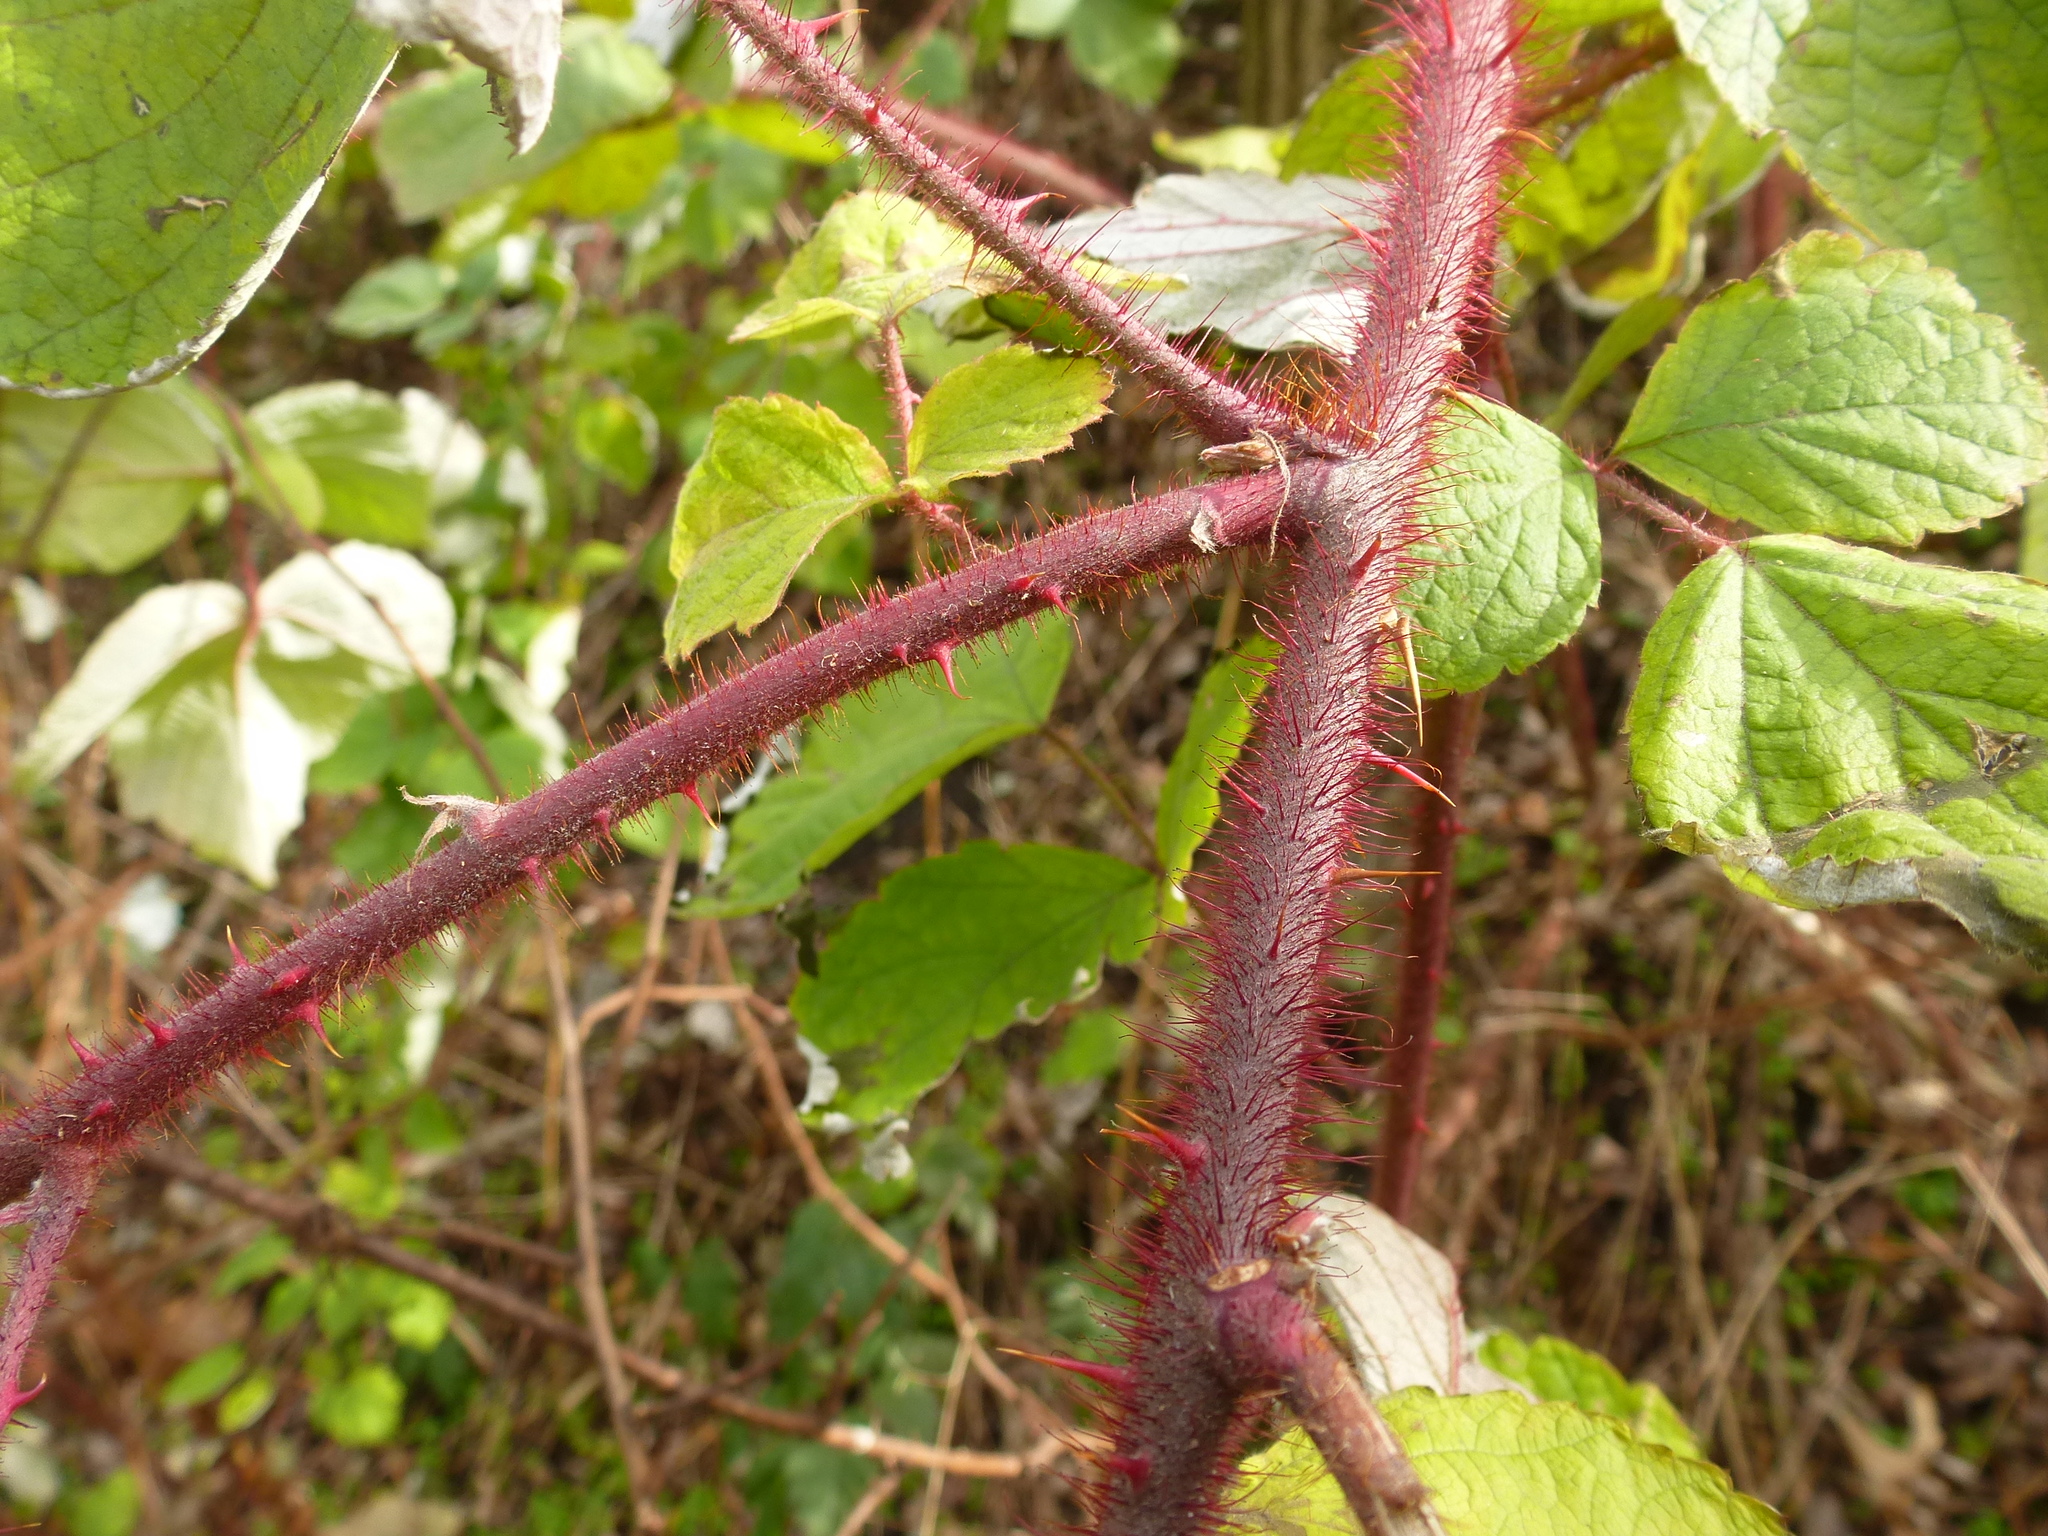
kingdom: Plantae
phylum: Tracheophyta
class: Magnoliopsida
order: Rosales
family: Rosaceae
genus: Rubus
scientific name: Rubus phoenicolasius
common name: Japanese wineberry
